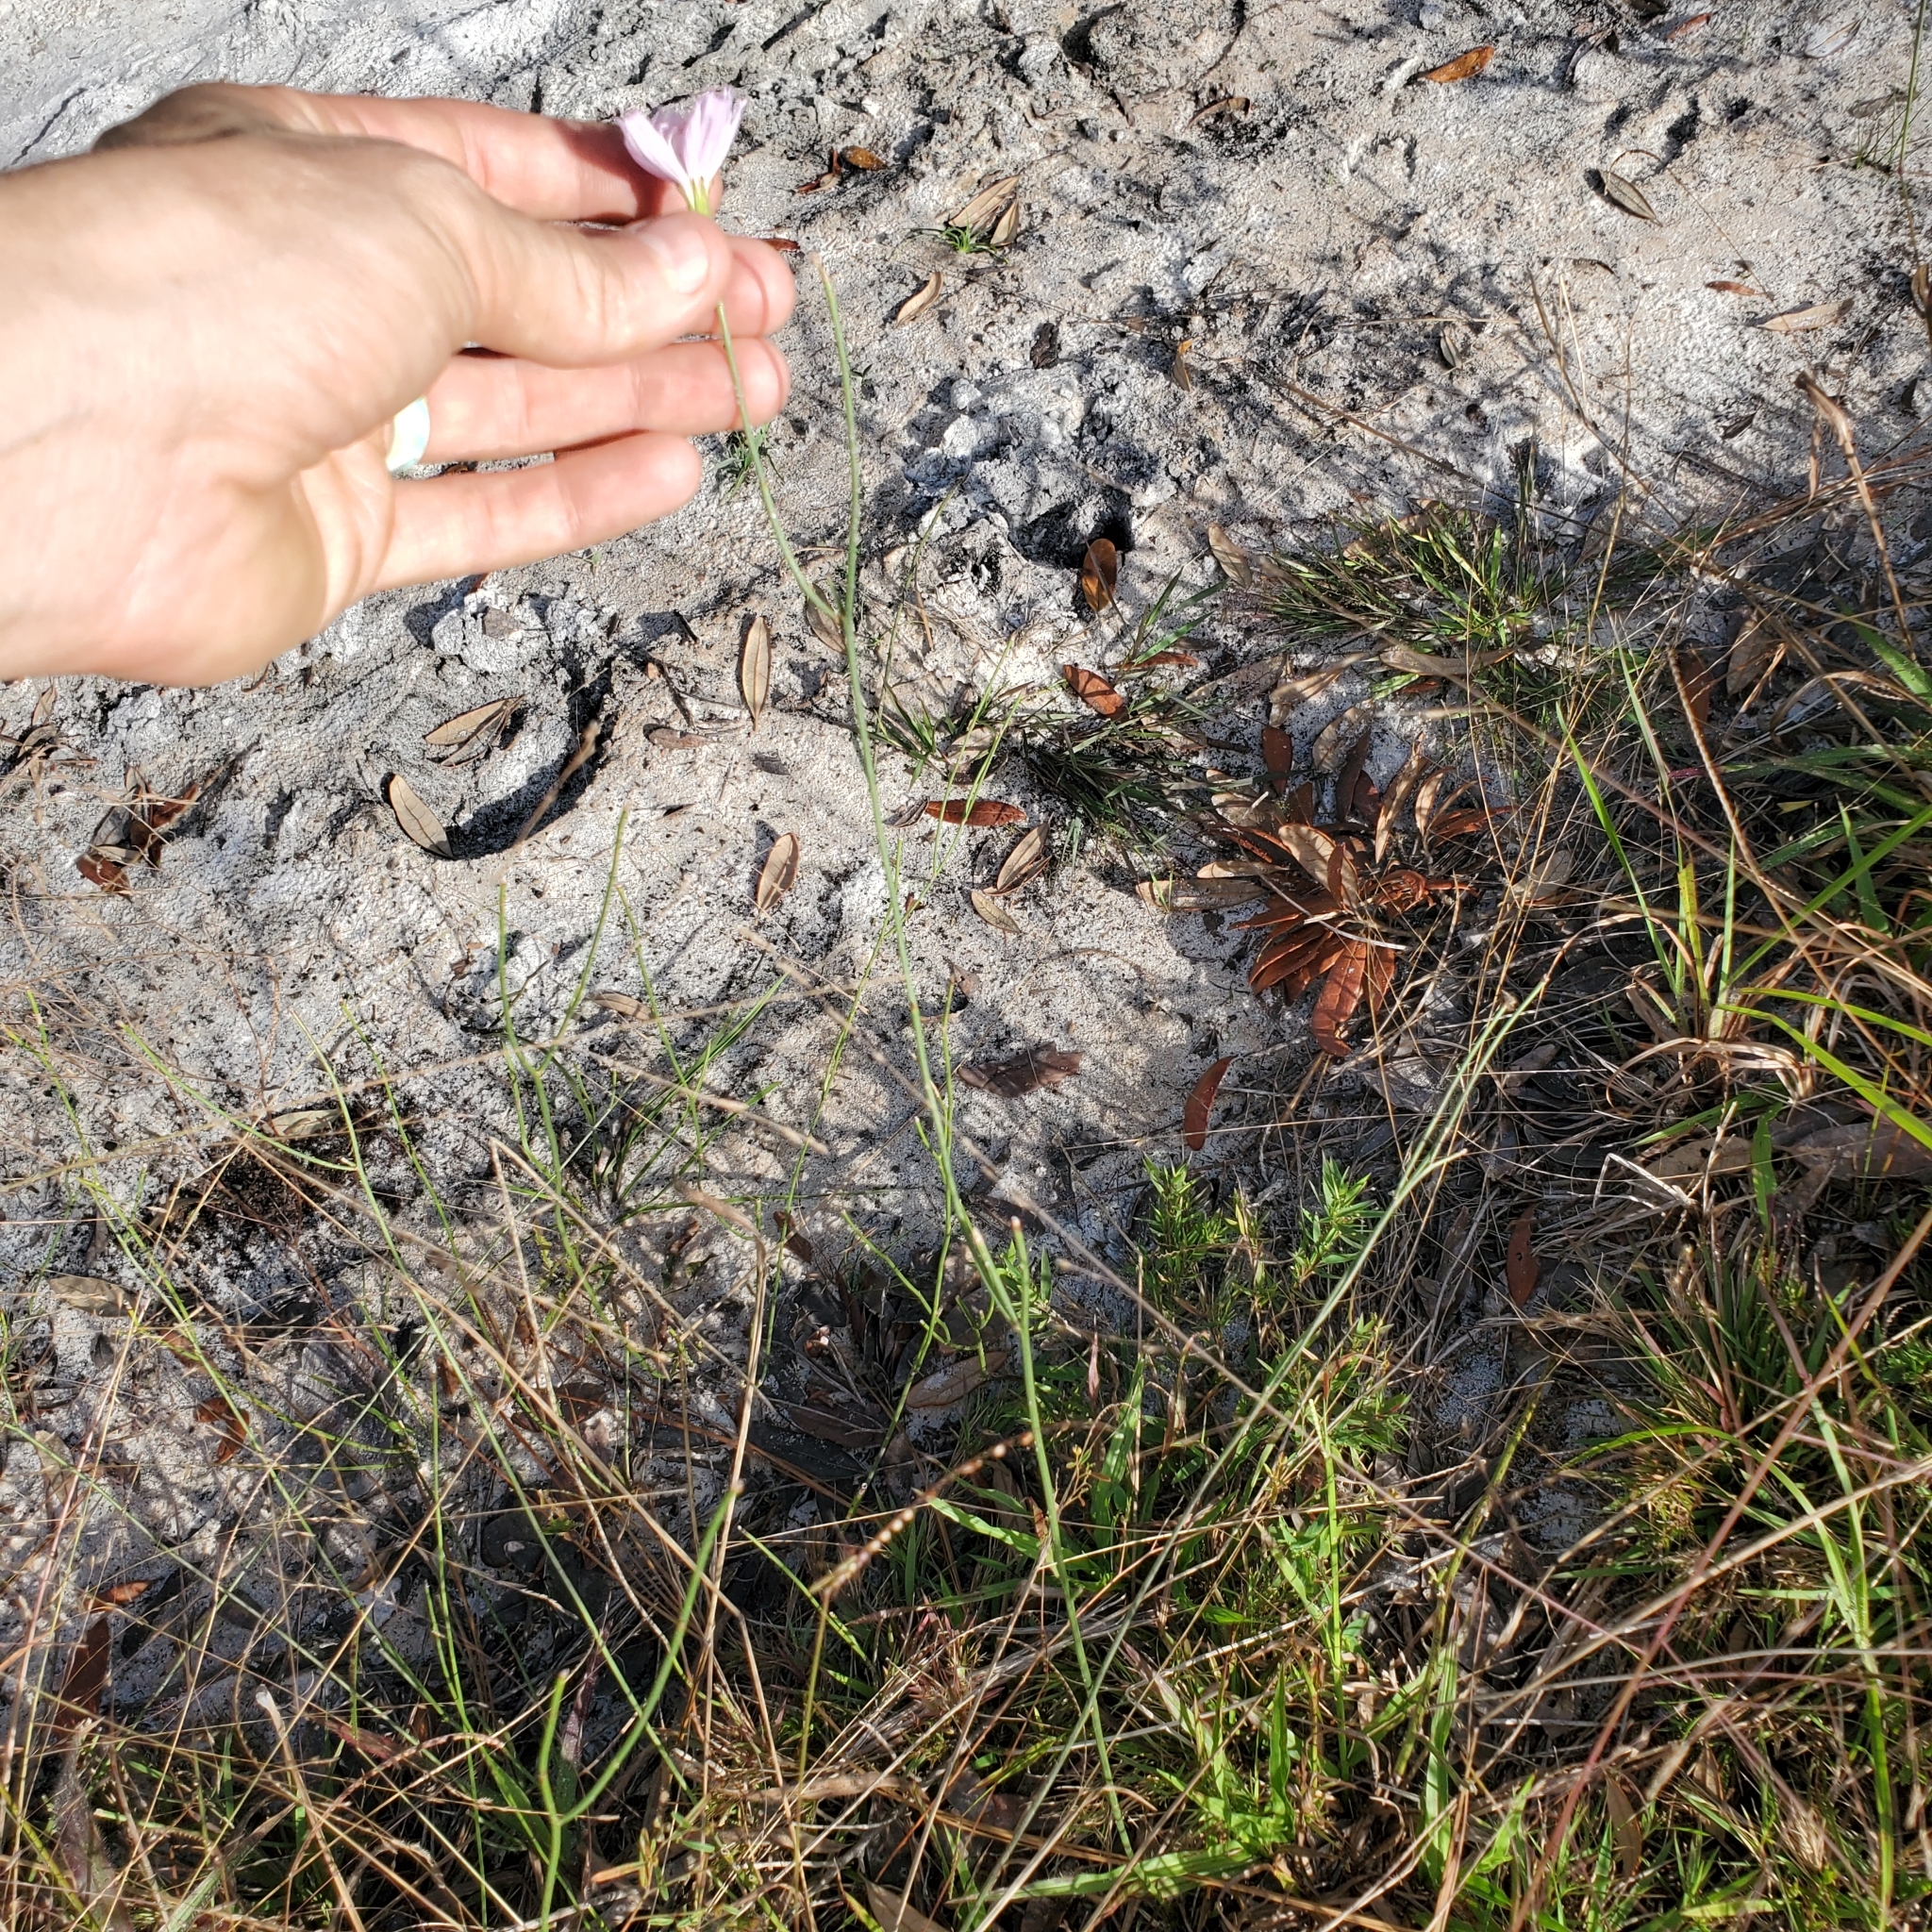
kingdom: Plantae
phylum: Tracheophyta
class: Magnoliopsida
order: Asterales
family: Asteraceae
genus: Lygodesmia
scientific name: Lygodesmia aphylla
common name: Rose-rush
